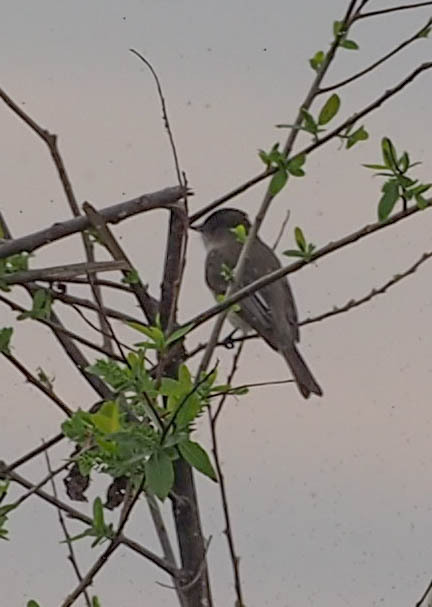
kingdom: Animalia
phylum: Chordata
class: Aves
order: Passeriformes
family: Tyrannidae
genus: Sayornis
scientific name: Sayornis phoebe
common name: Eastern phoebe
